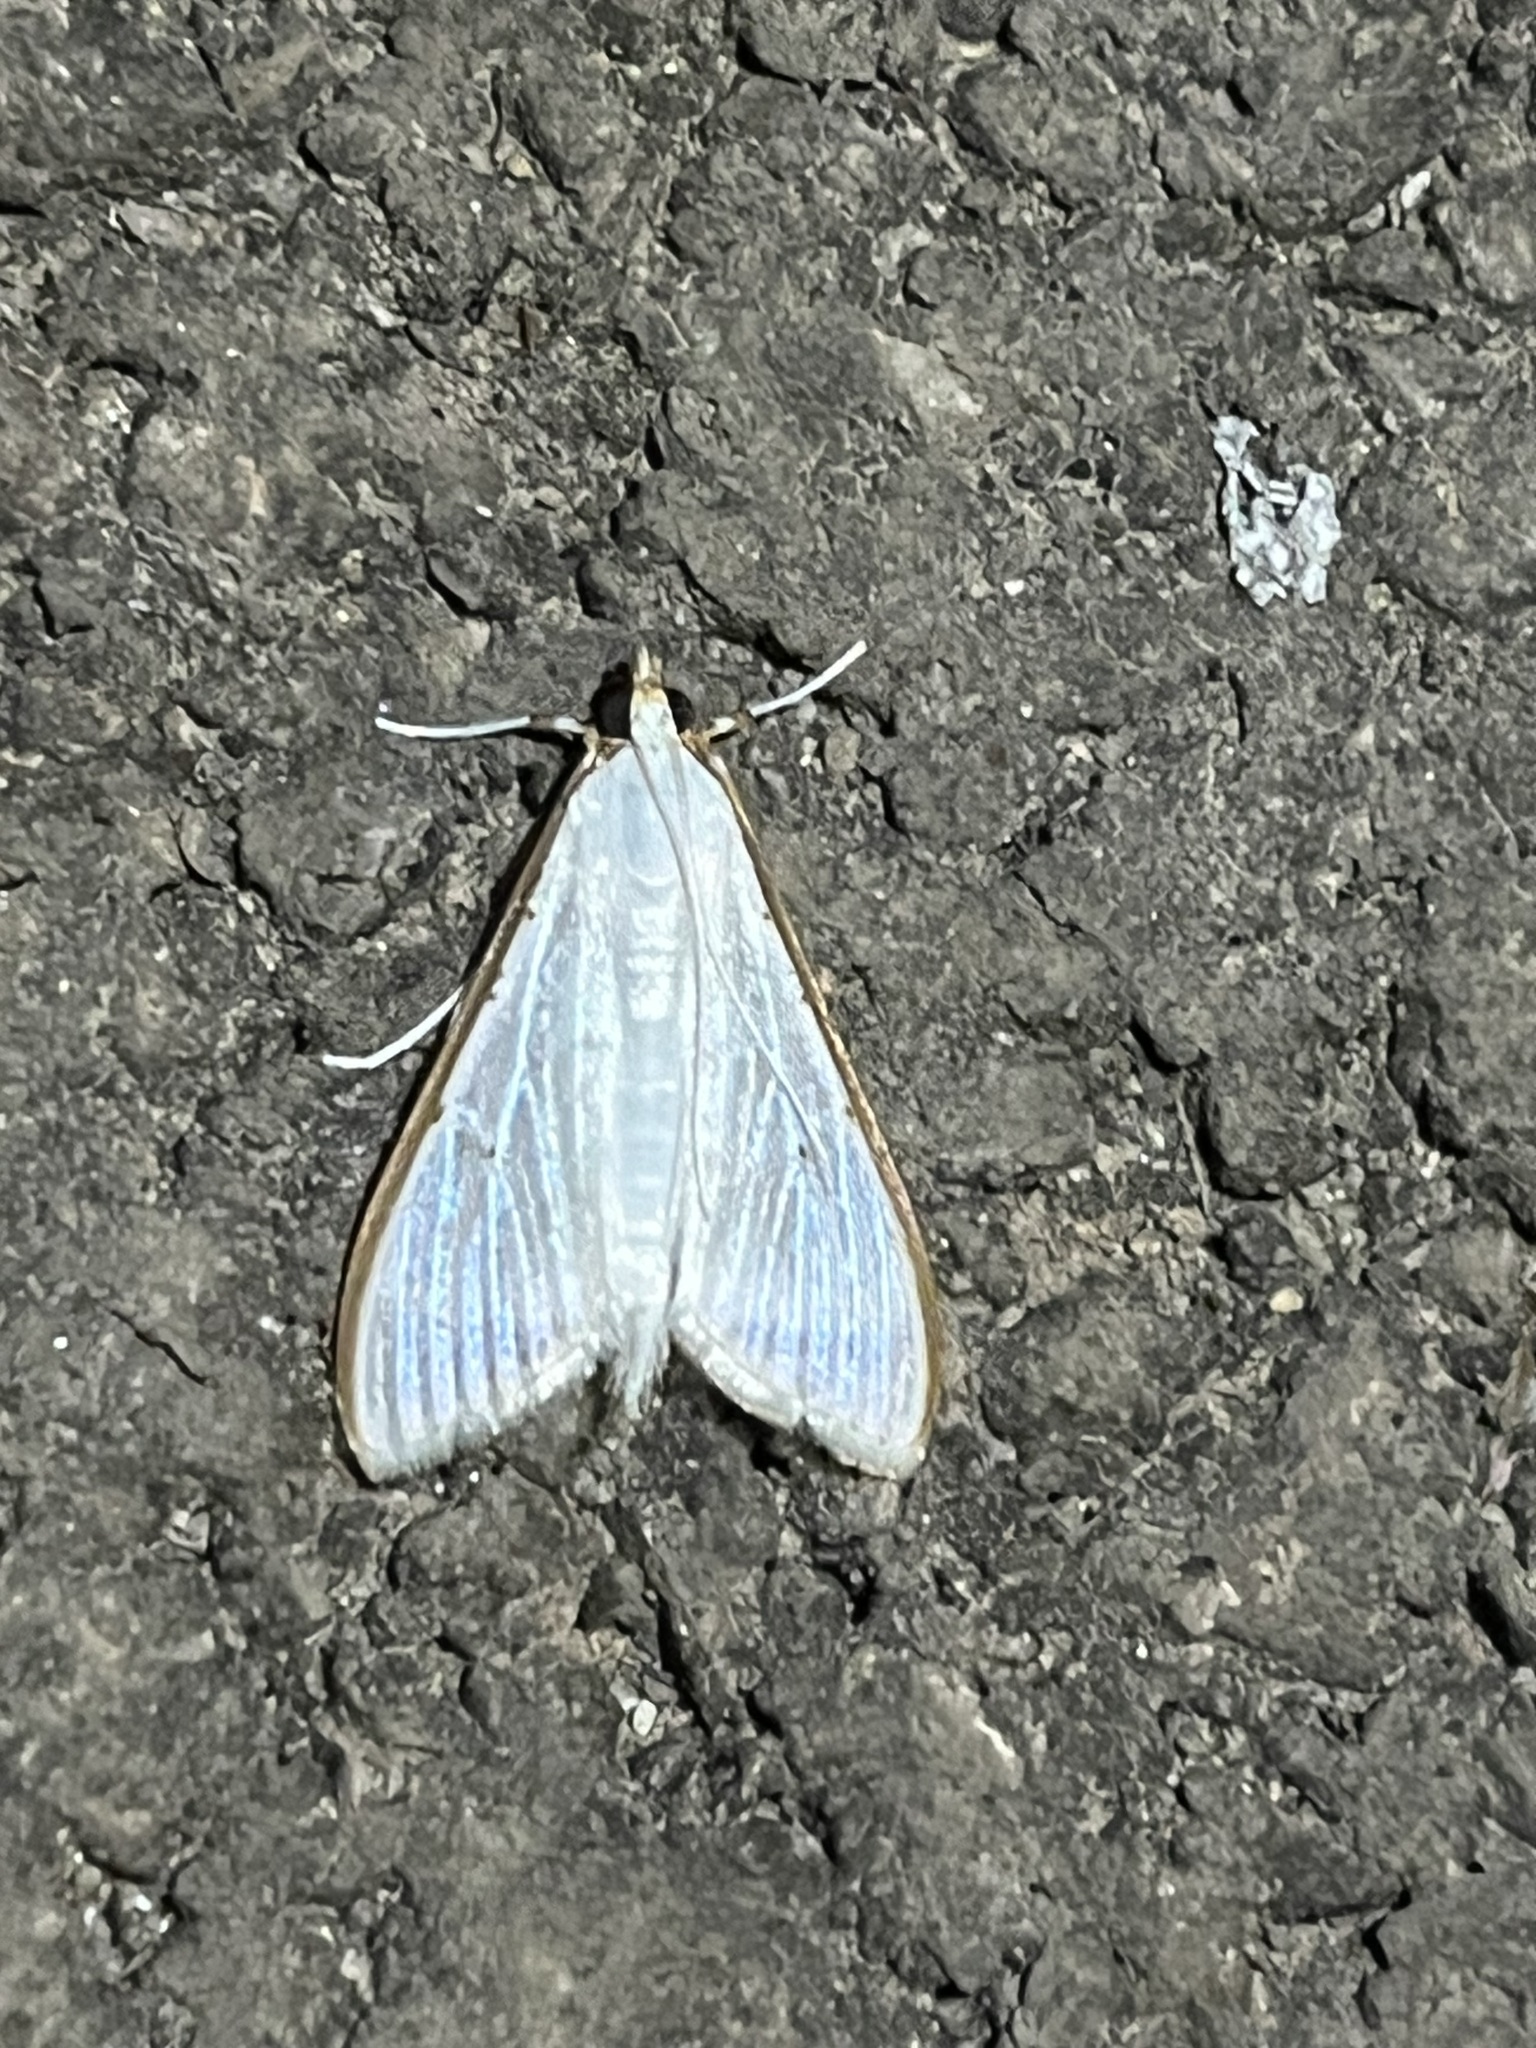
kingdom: Animalia
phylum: Arthropoda
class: Insecta
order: Lepidoptera
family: Crambidae
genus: Palpita
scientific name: Palpita vitrealis
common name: Olive-tree pearl
